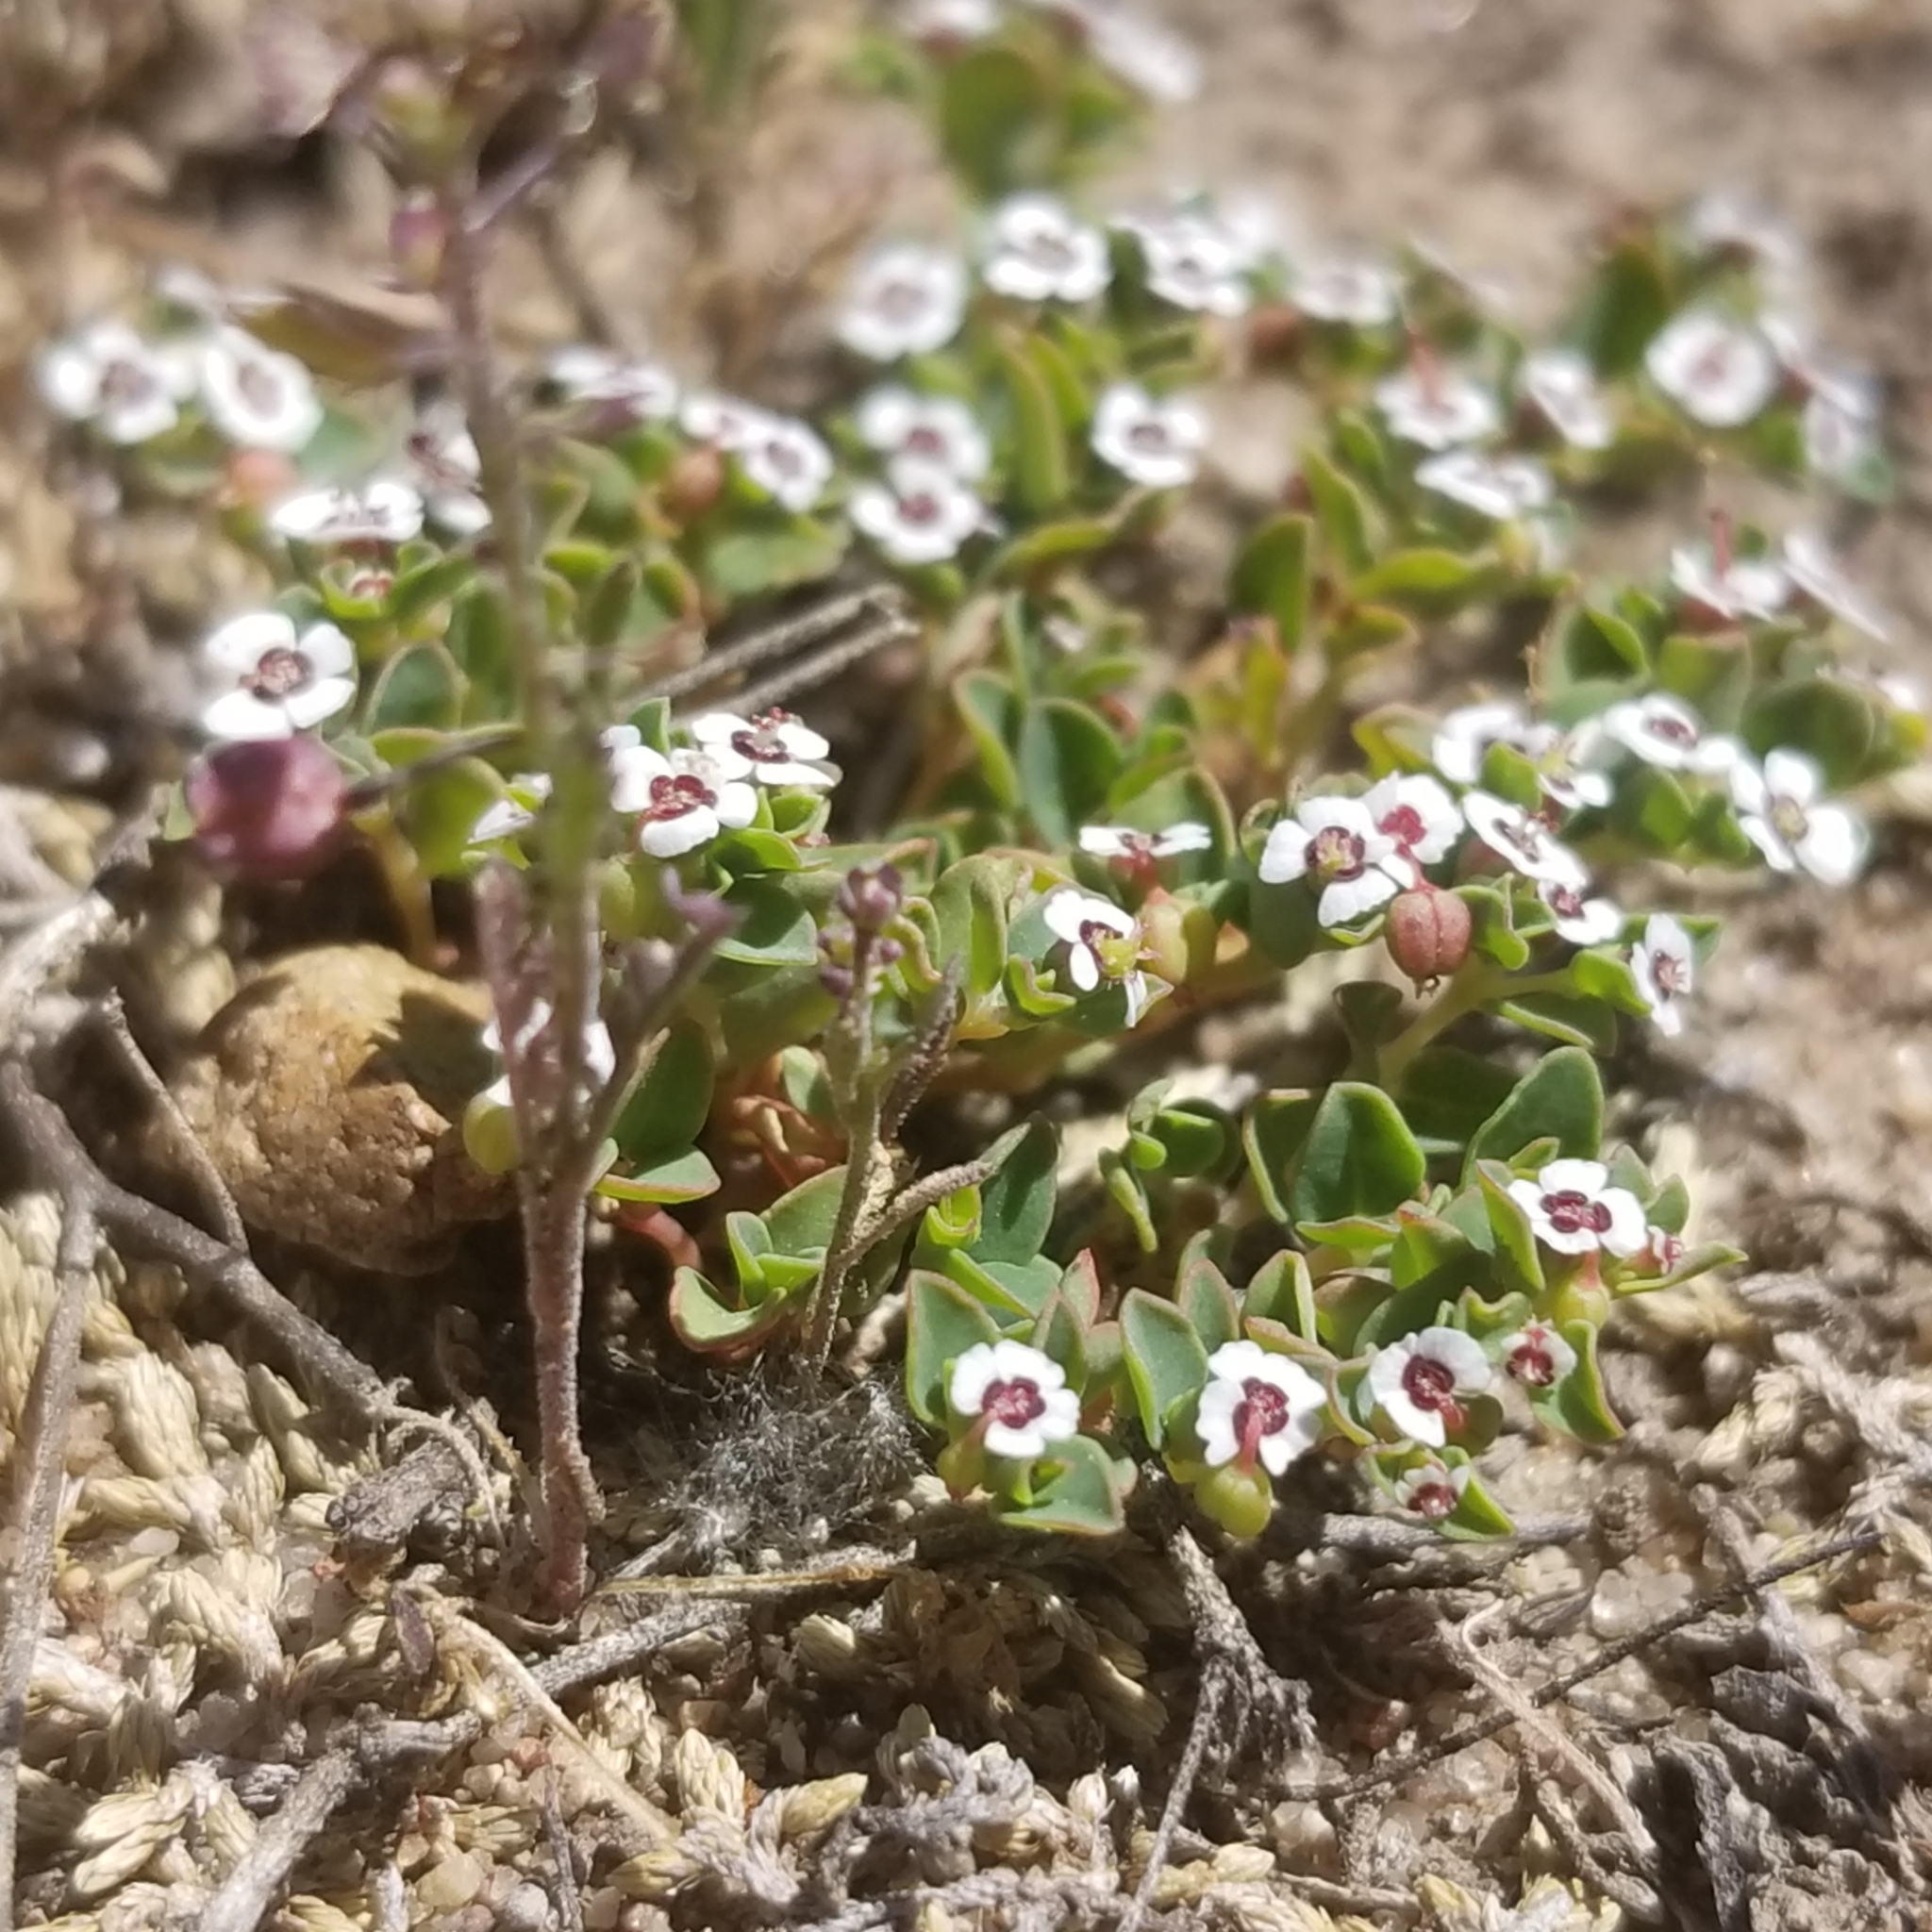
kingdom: Plantae
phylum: Tracheophyta
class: Magnoliopsida
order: Malpighiales
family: Euphorbiaceae
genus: Euphorbia
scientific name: Euphorbia polycarpa
